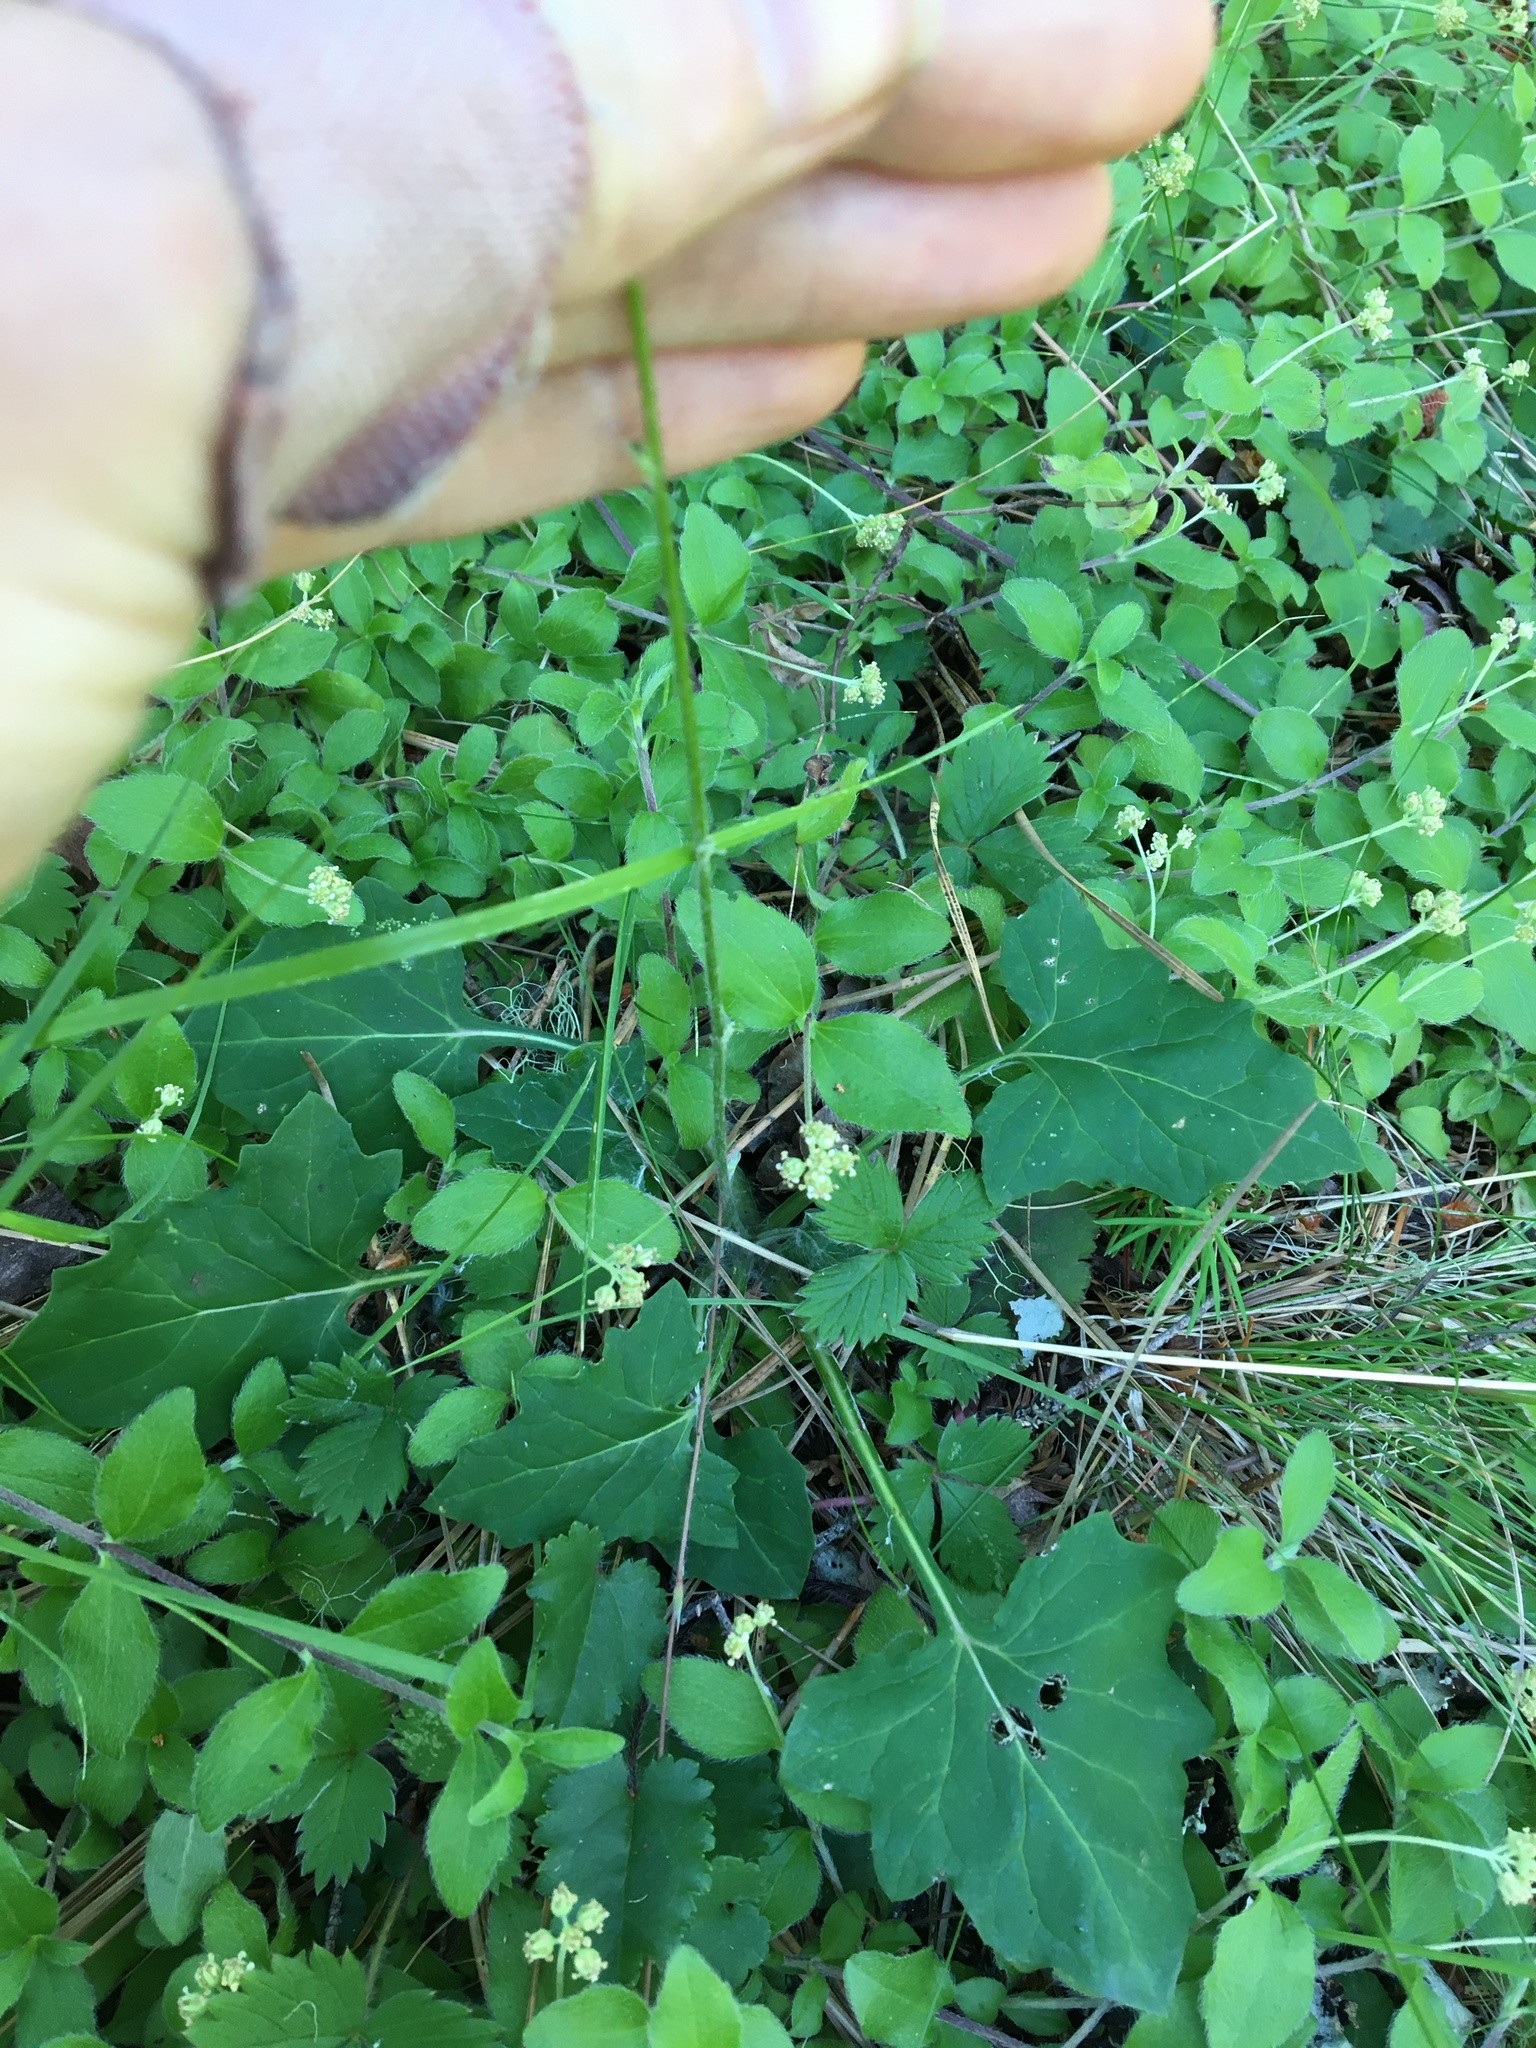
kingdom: Plantae
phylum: Tracheophyta
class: Magnoliopsida
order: Asterales
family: Asteraceae
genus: Adenocaulon
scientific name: Adenocaulon bicolor
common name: Trailplant
